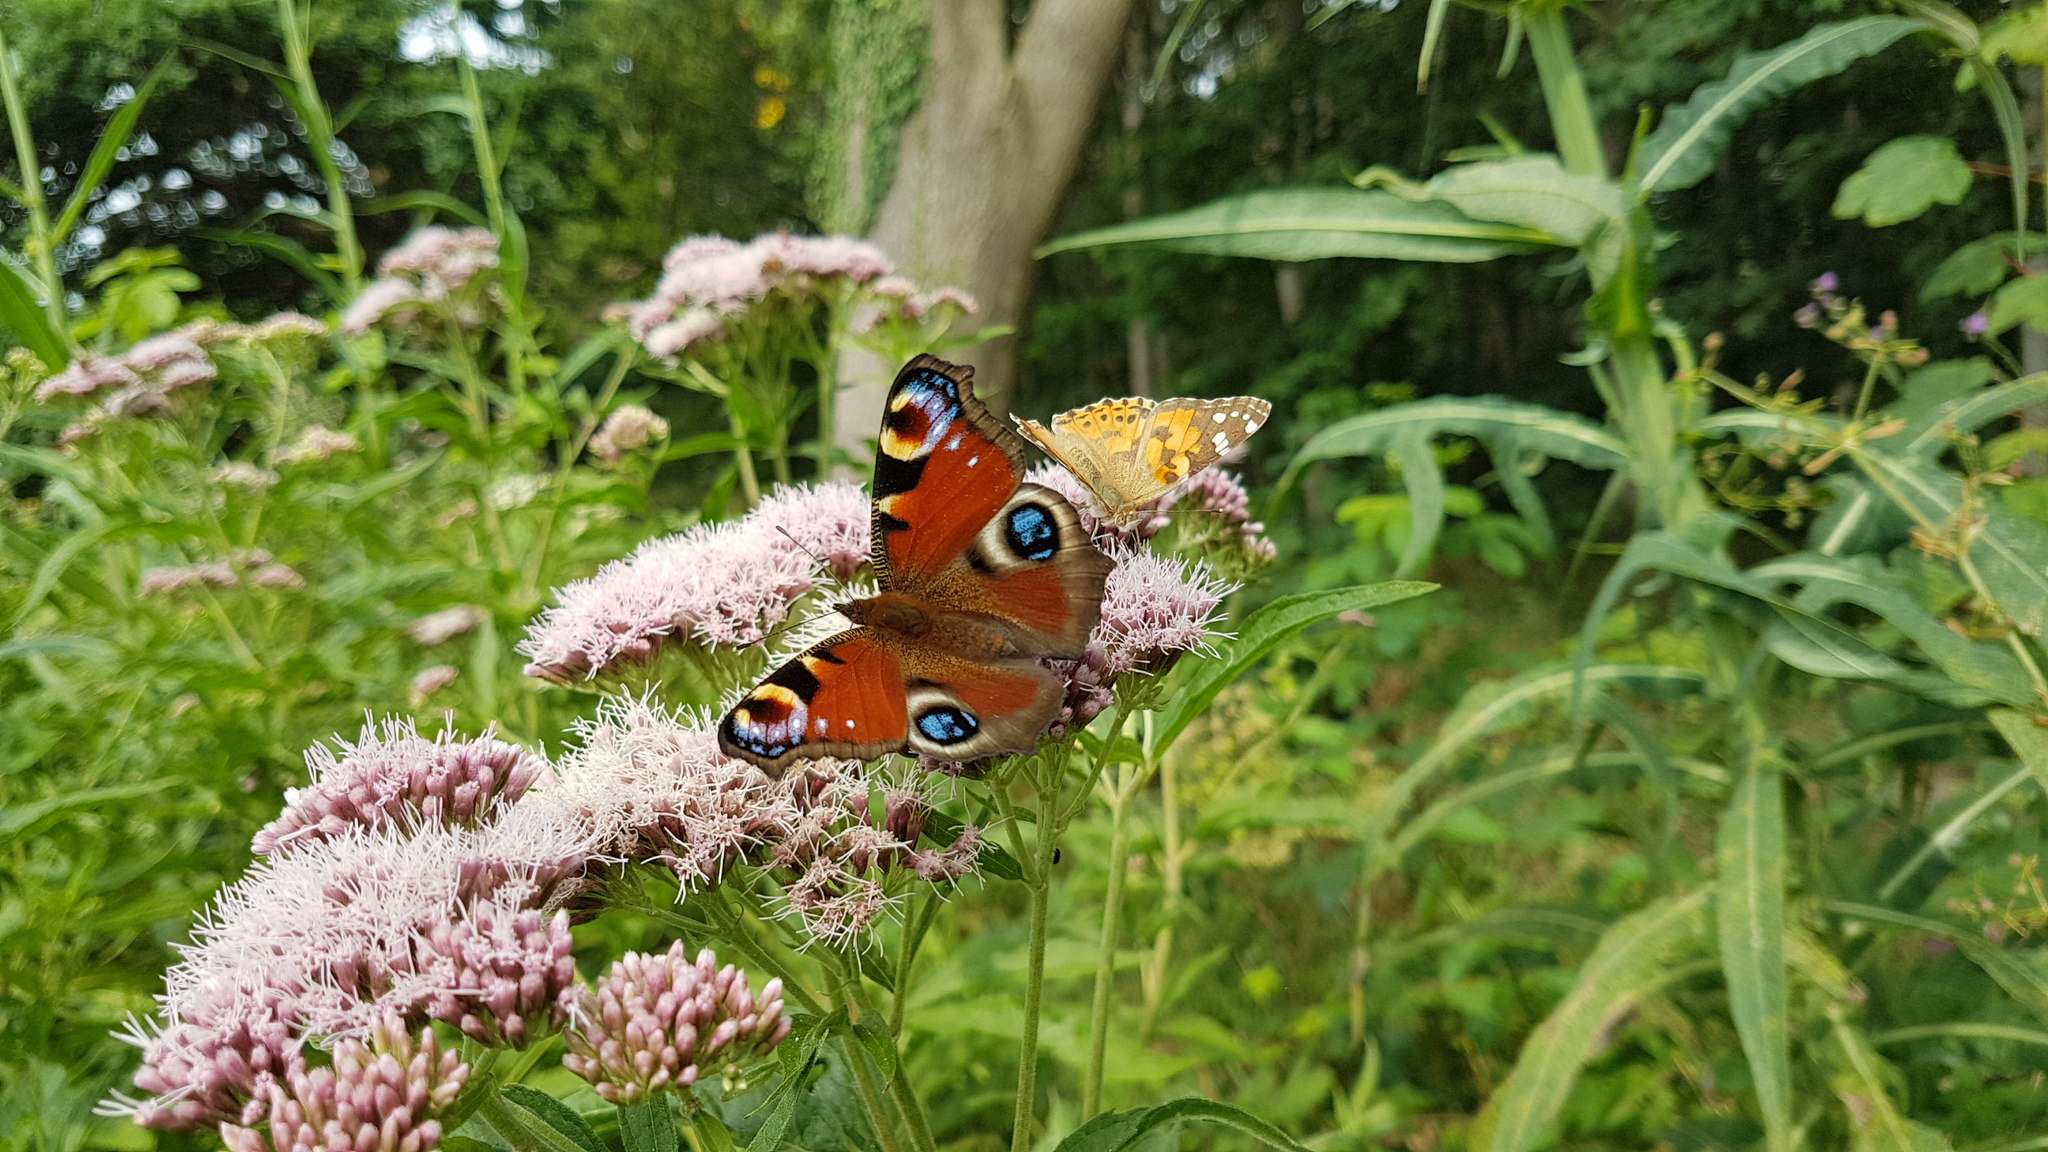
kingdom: Animalia
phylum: Arthropoda
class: Insecta
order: Lepidoptera
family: Nymphalidae
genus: Aglais
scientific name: Aglais io
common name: Peacock
